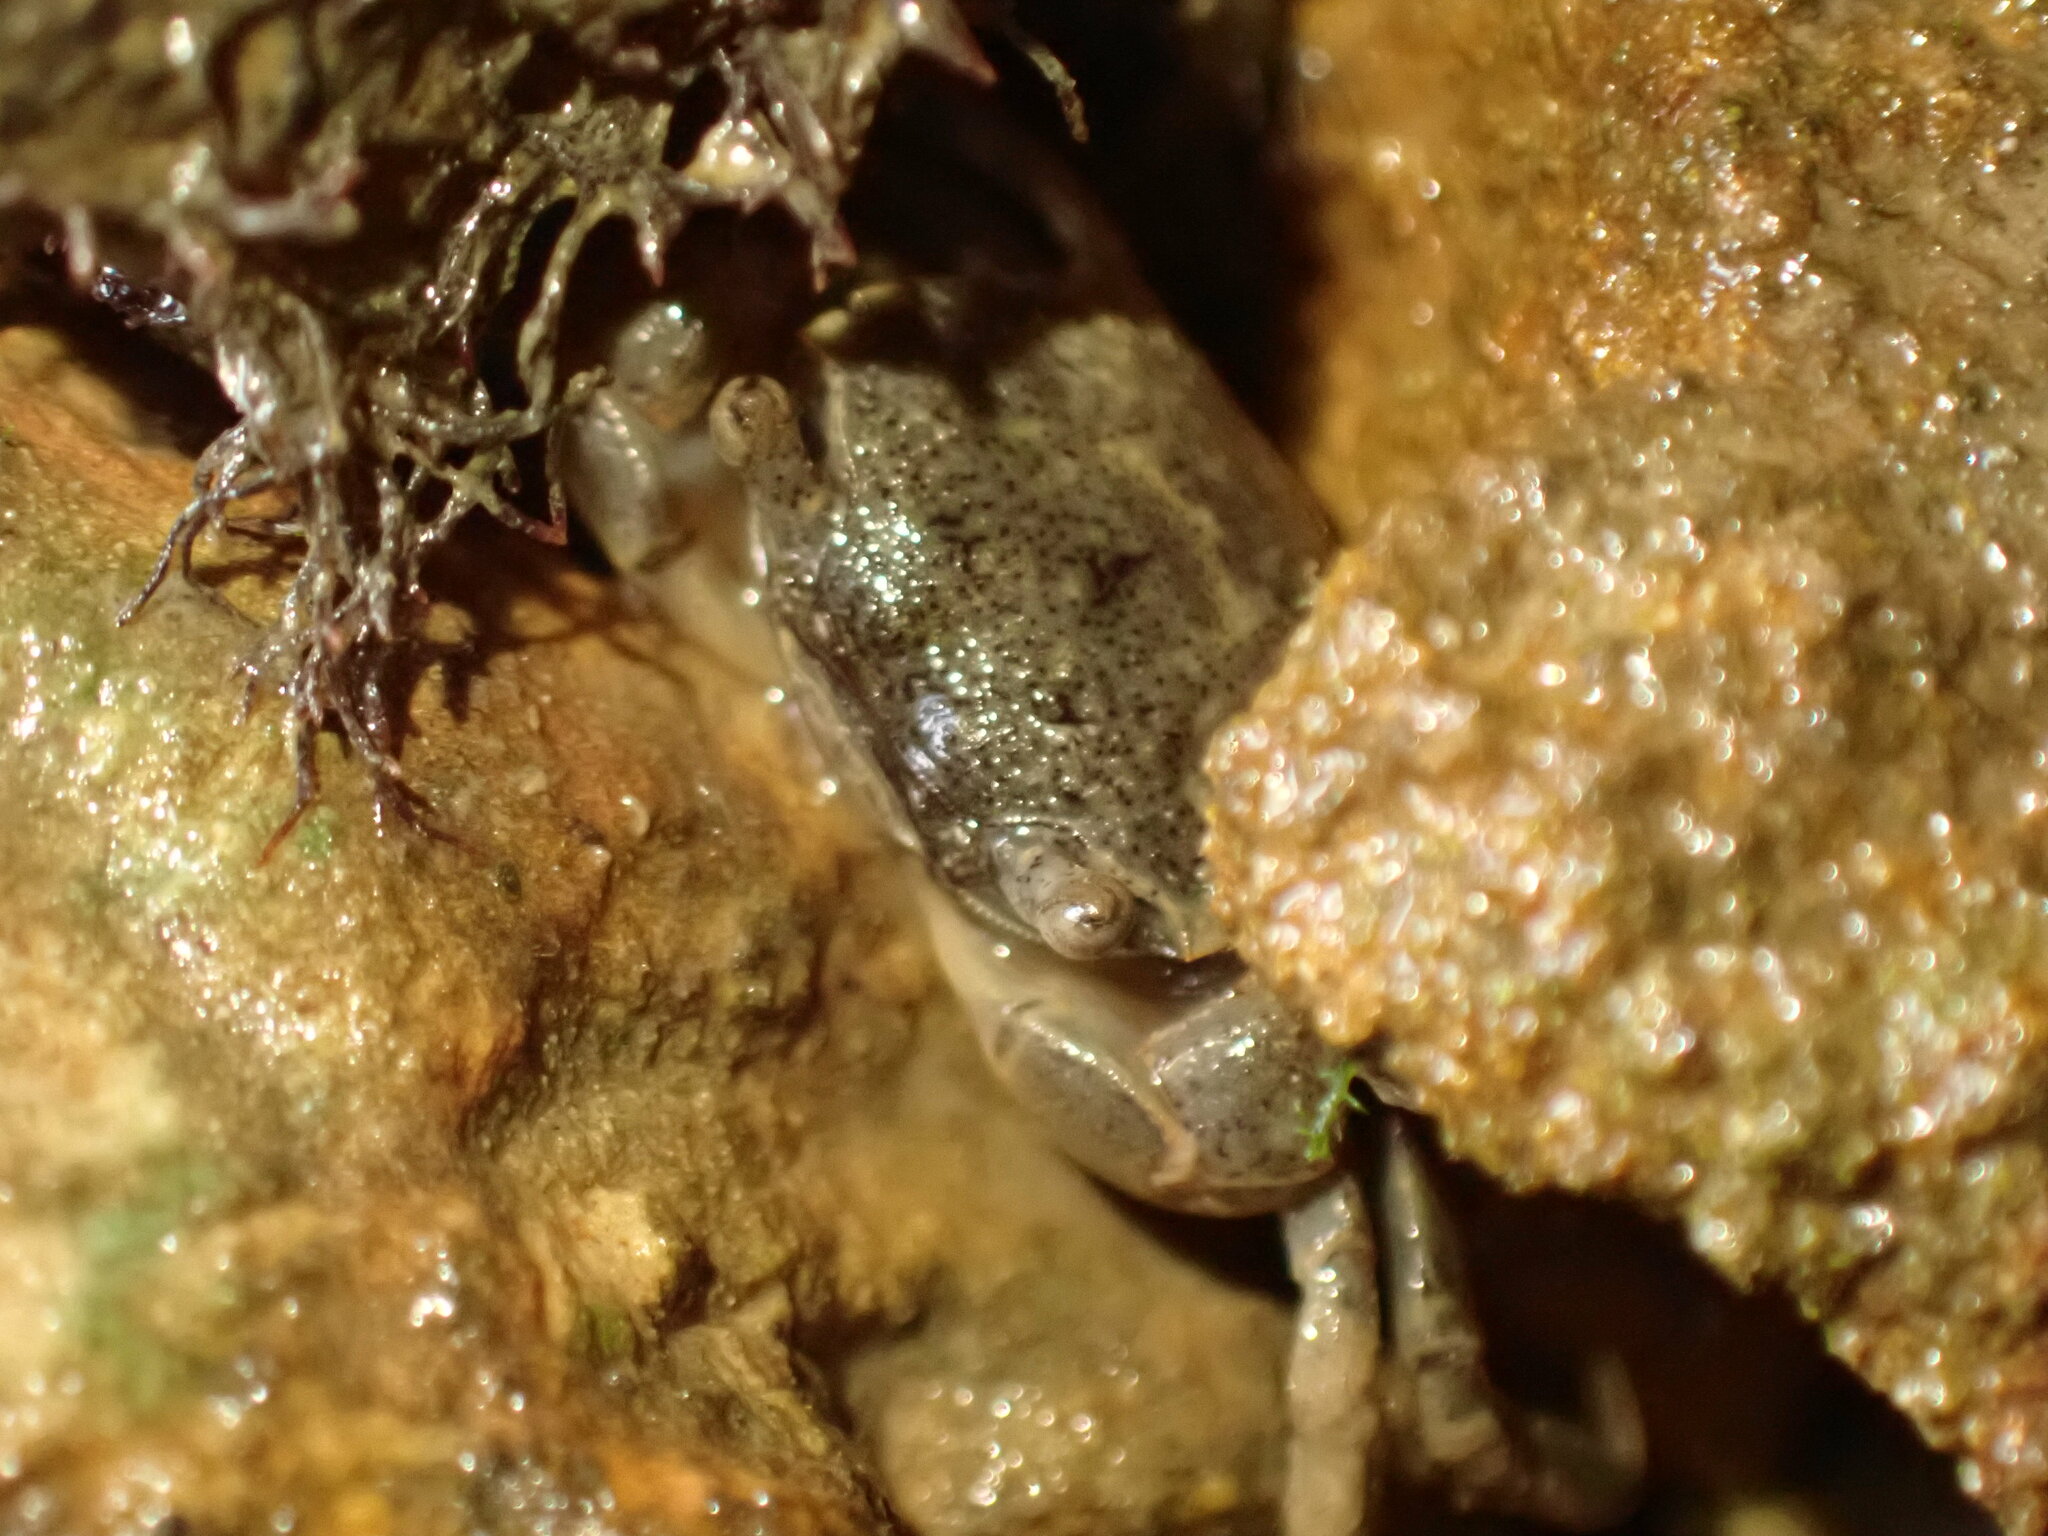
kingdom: Animalia
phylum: Arthropoda
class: Malacostraca
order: Decapoda
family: Varunidae
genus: Austrohelice
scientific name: Austrohelice crassa
